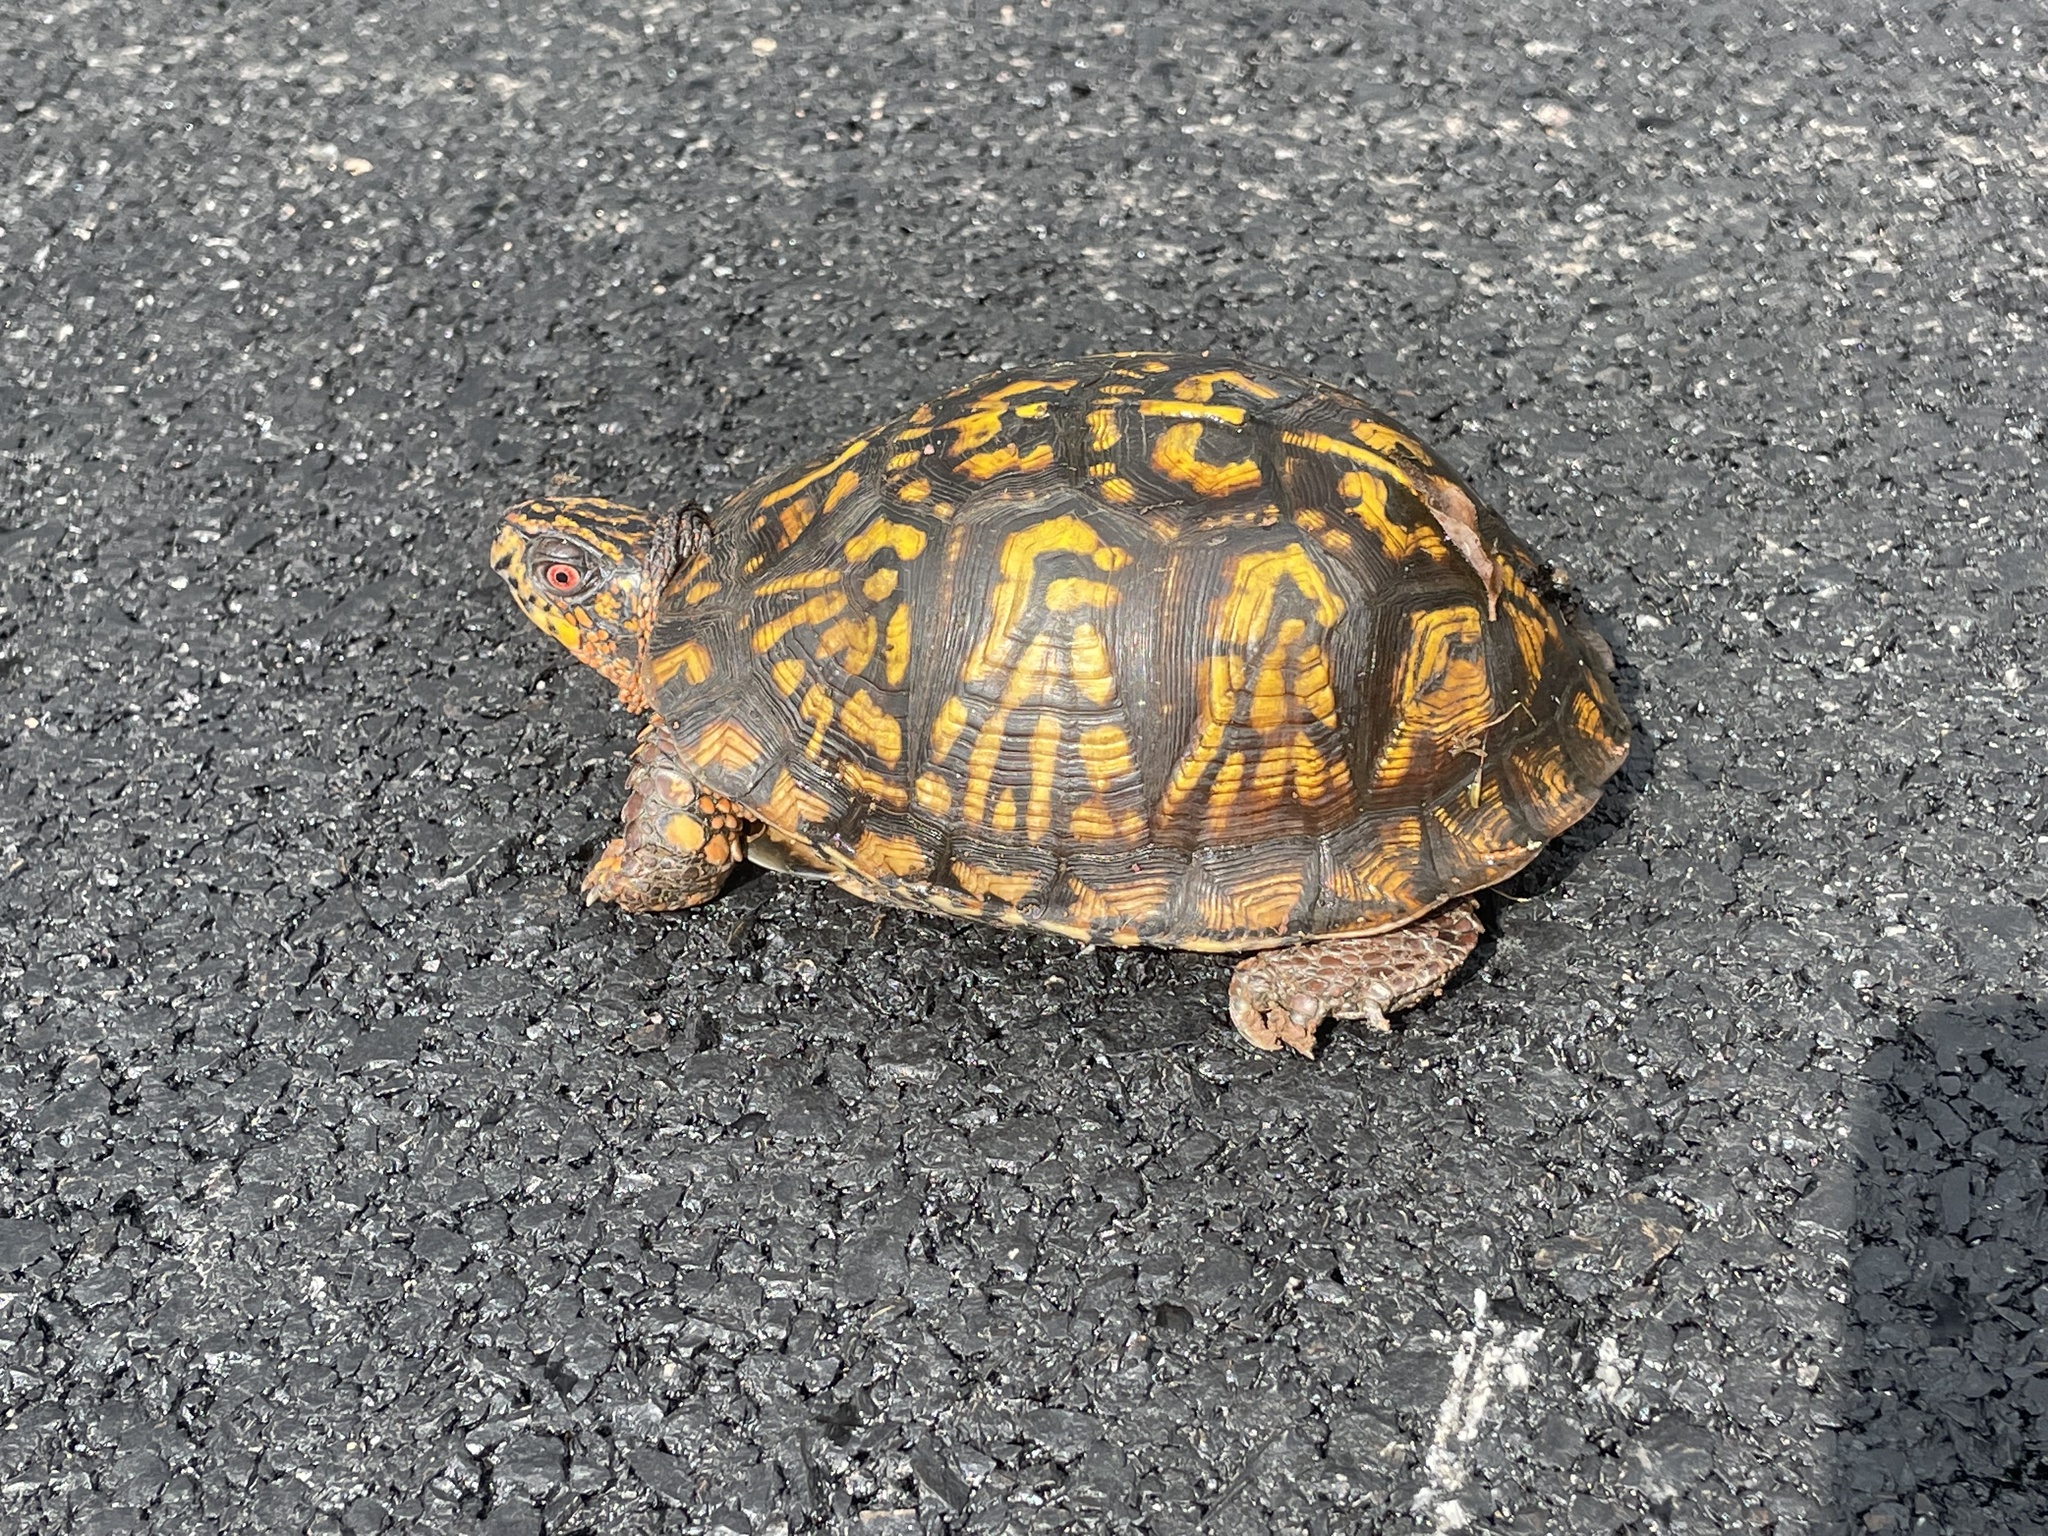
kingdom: Animalia
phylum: Chordata
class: Testudines
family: Emydidae
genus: Terrapene
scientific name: Terrapene carolina
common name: Common box turtle
